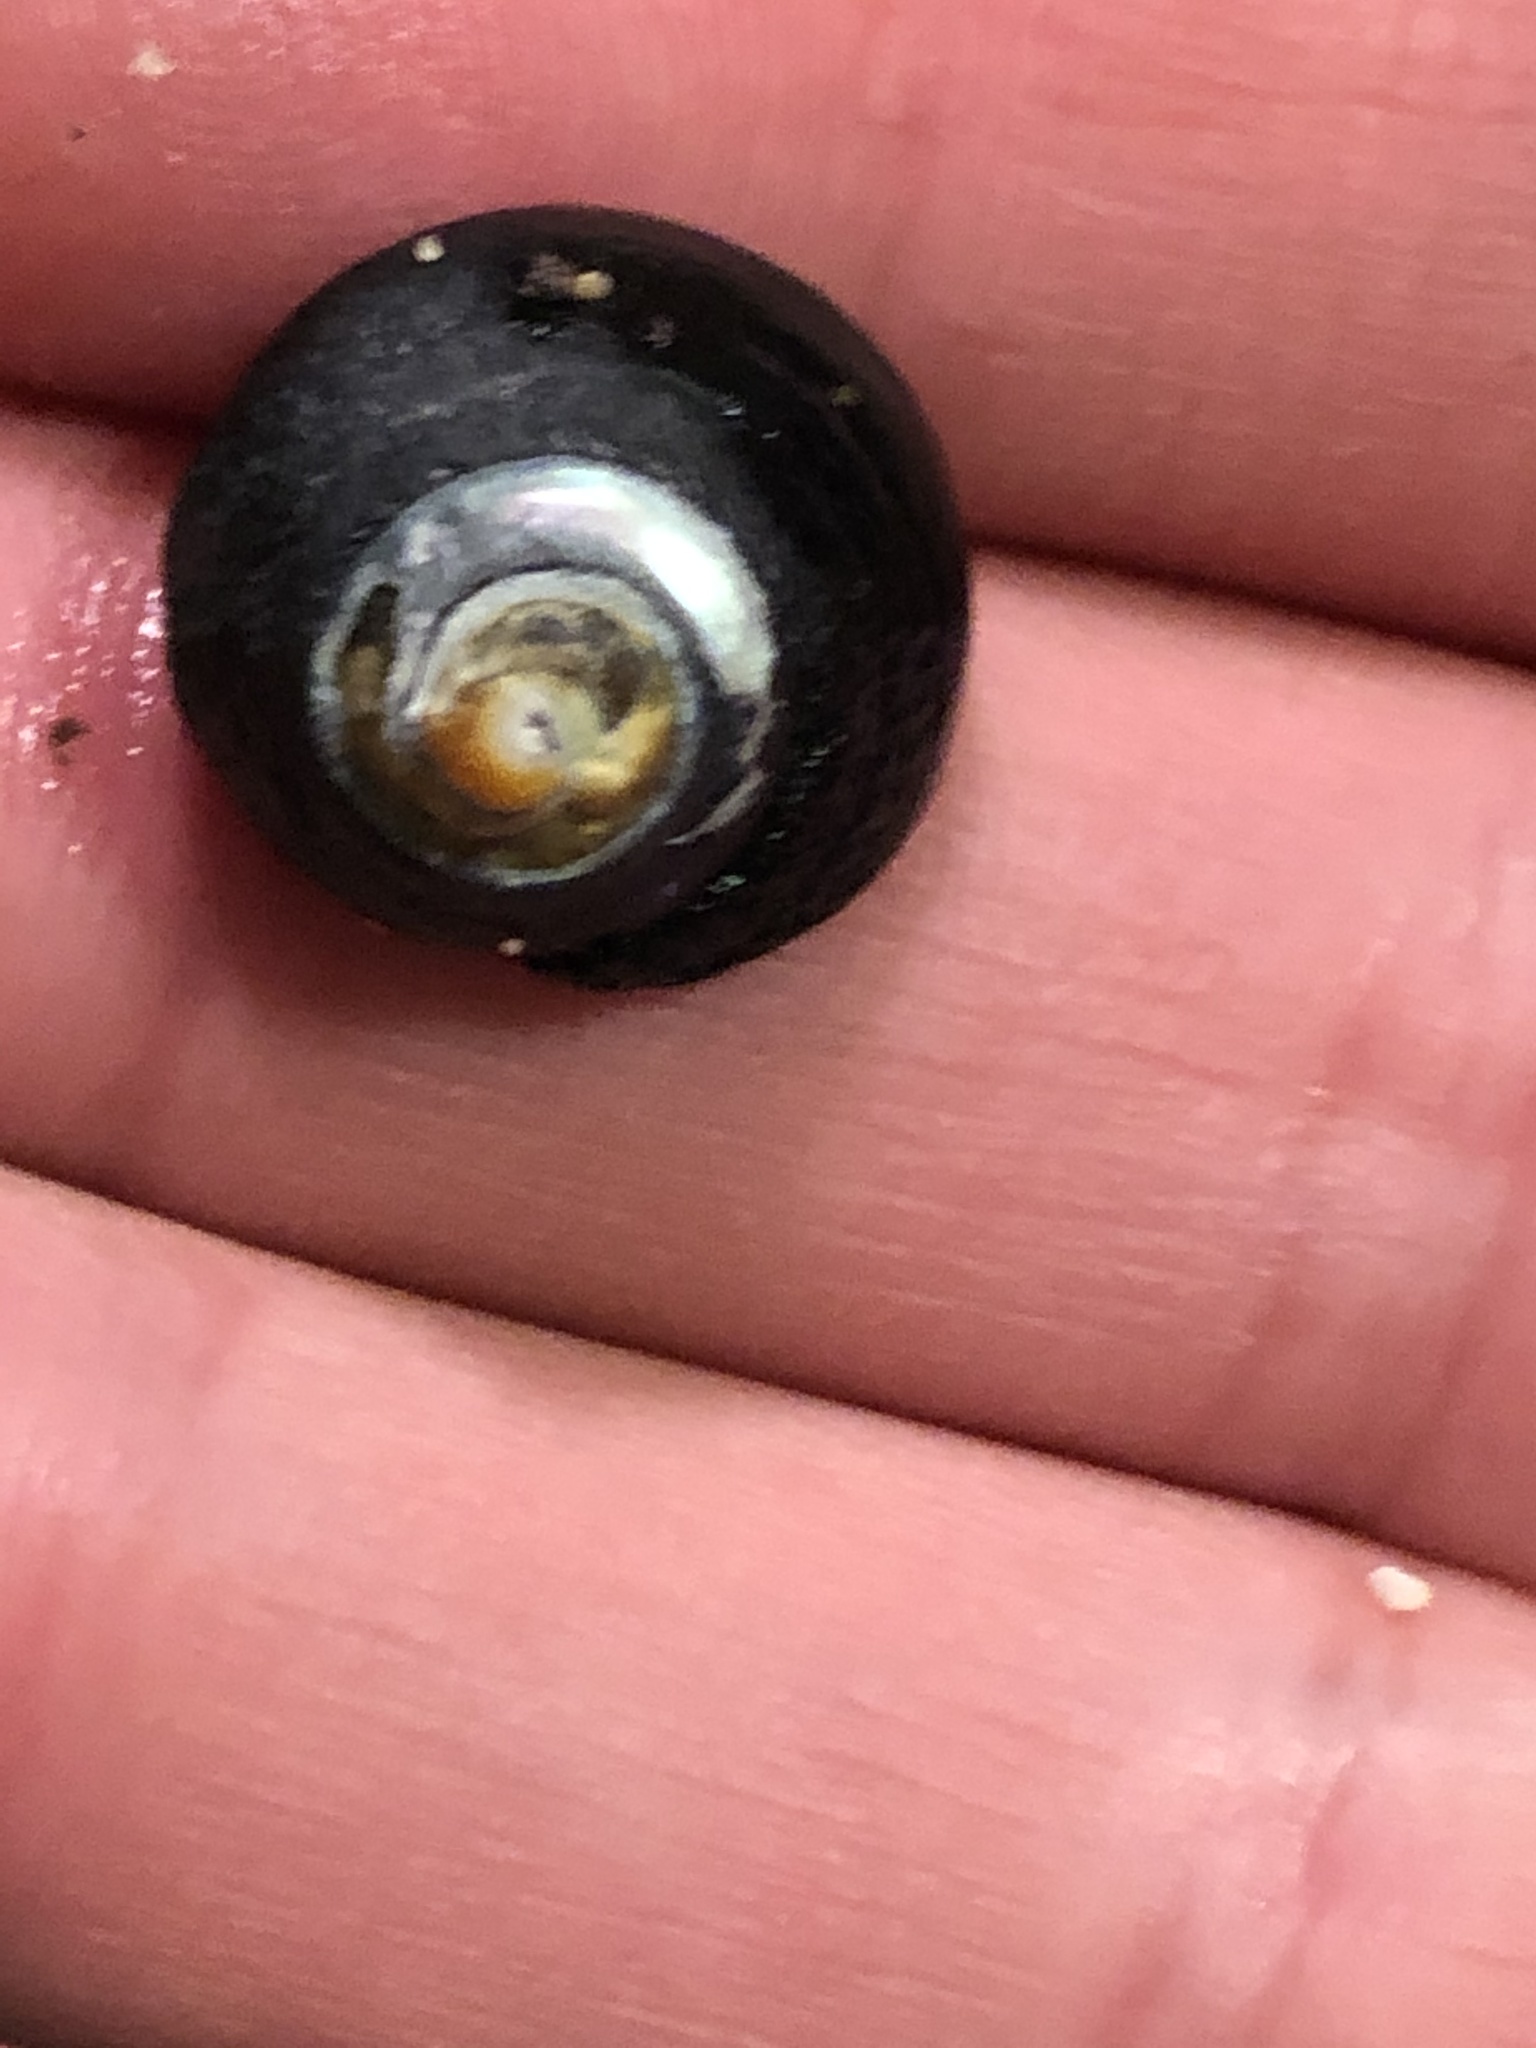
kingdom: Animalia
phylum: Mollusca
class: Gastropoda
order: Trochida
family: Tegulidae
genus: Tegula
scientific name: Tegula funebralis
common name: Black tegula
